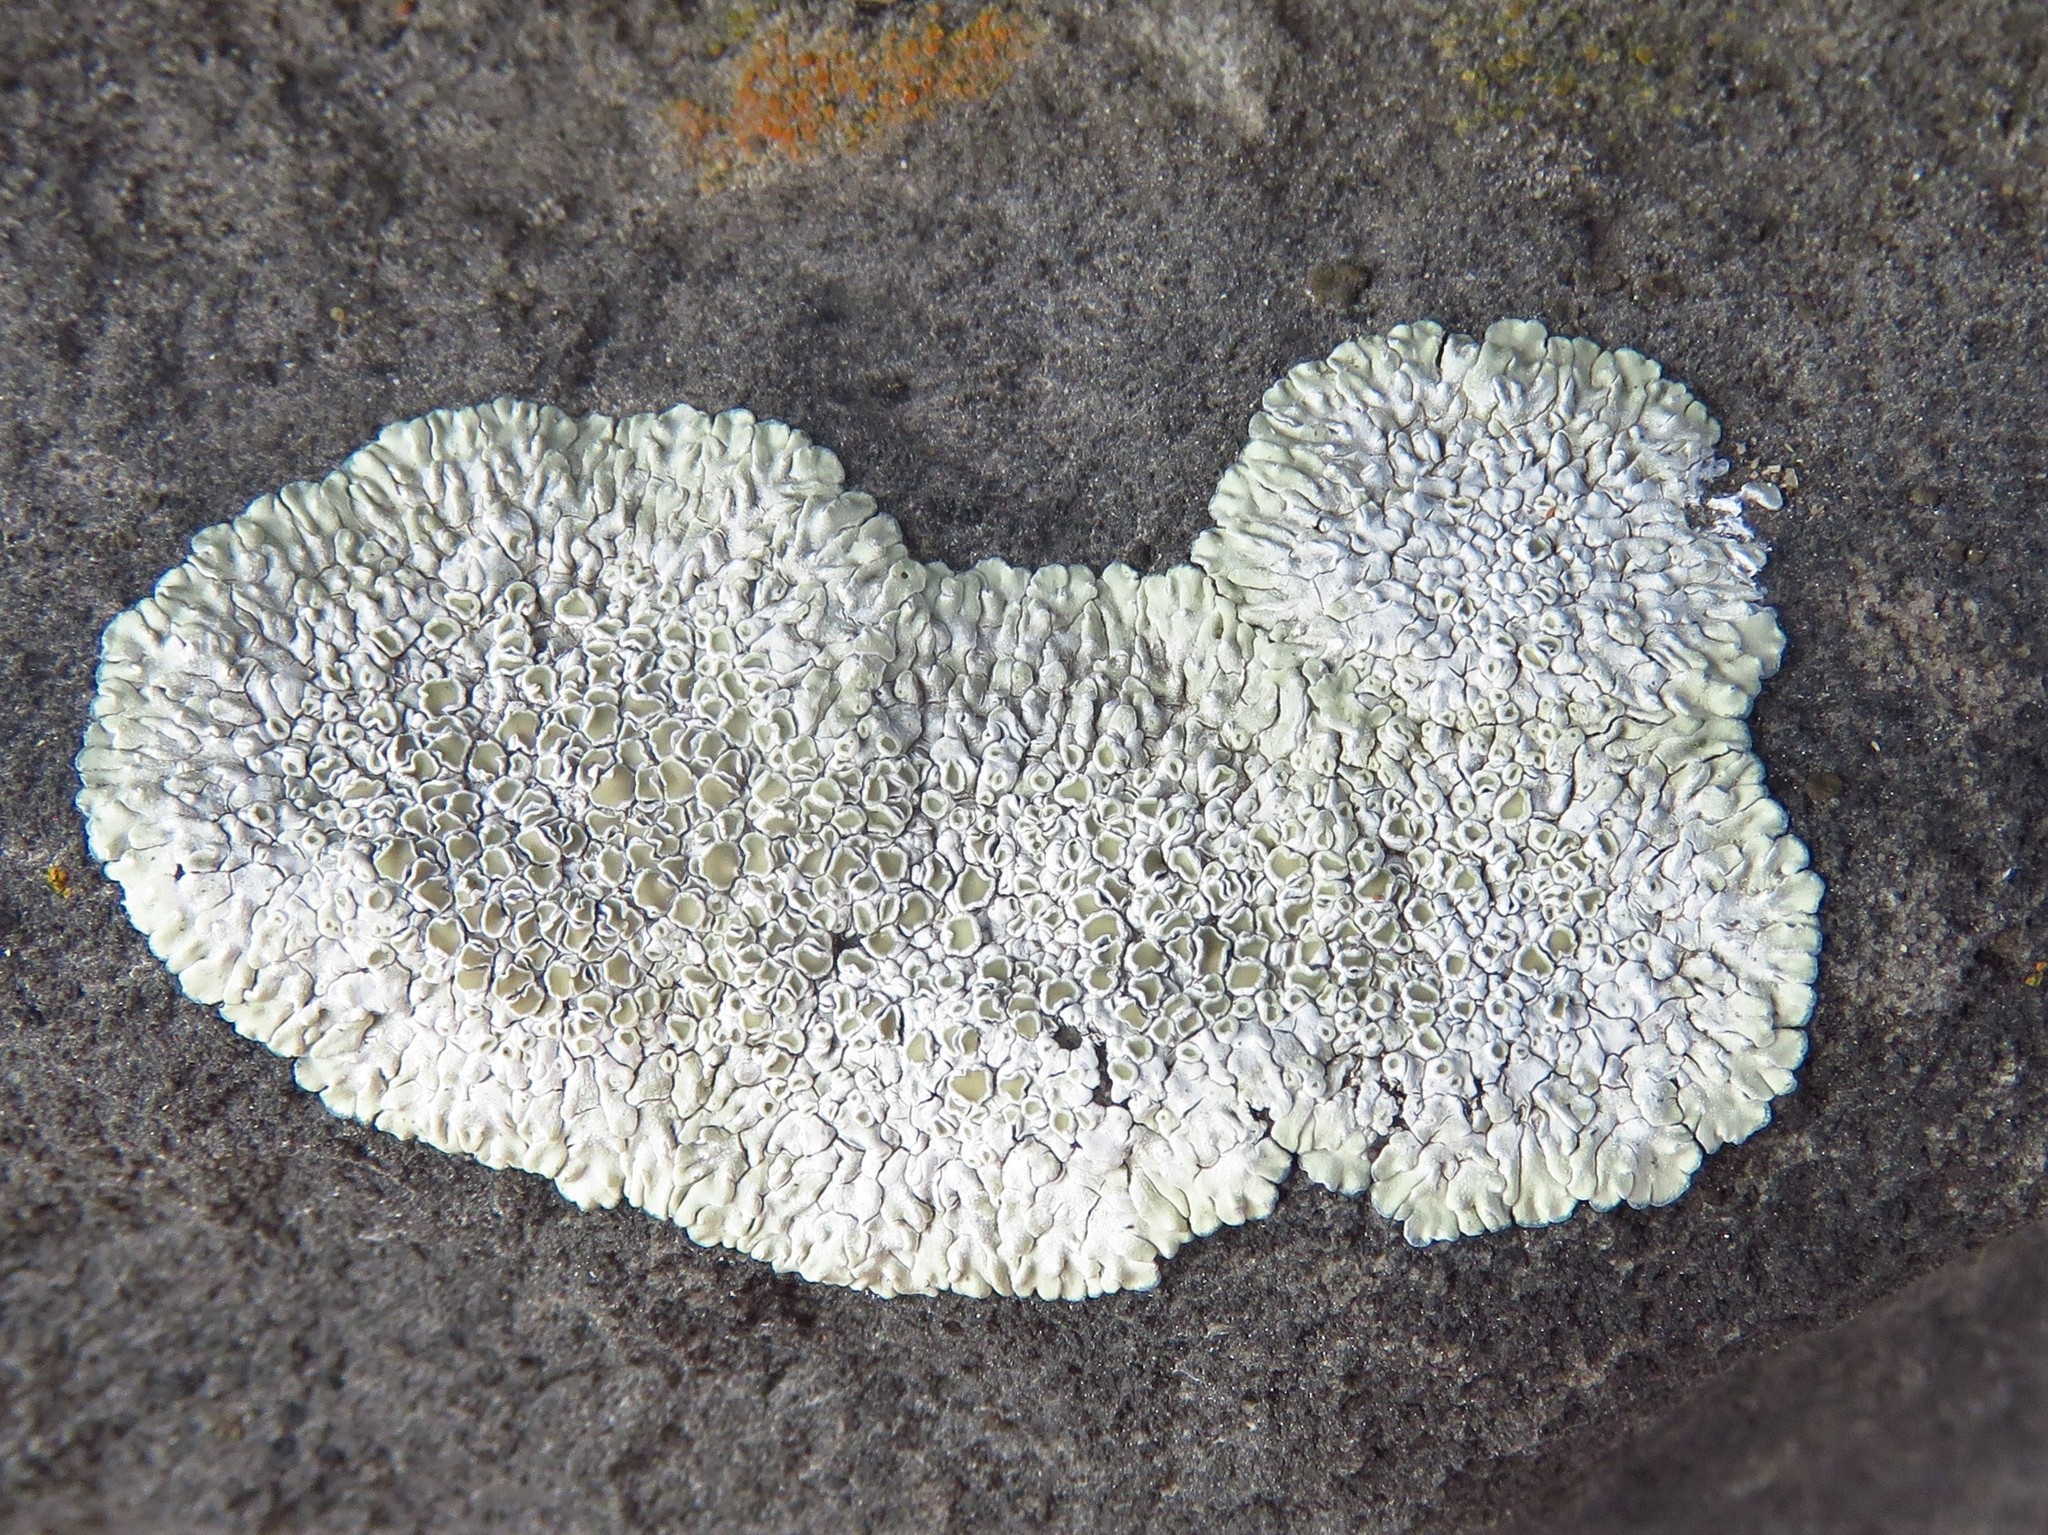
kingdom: Fungi
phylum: Ascomycota
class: Lecanoromycetes
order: Lecanorales
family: Lecanoraceae
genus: Protoparmeliopsis
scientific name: Protoparmeliopsis muralis
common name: Stonewall rim lichen
